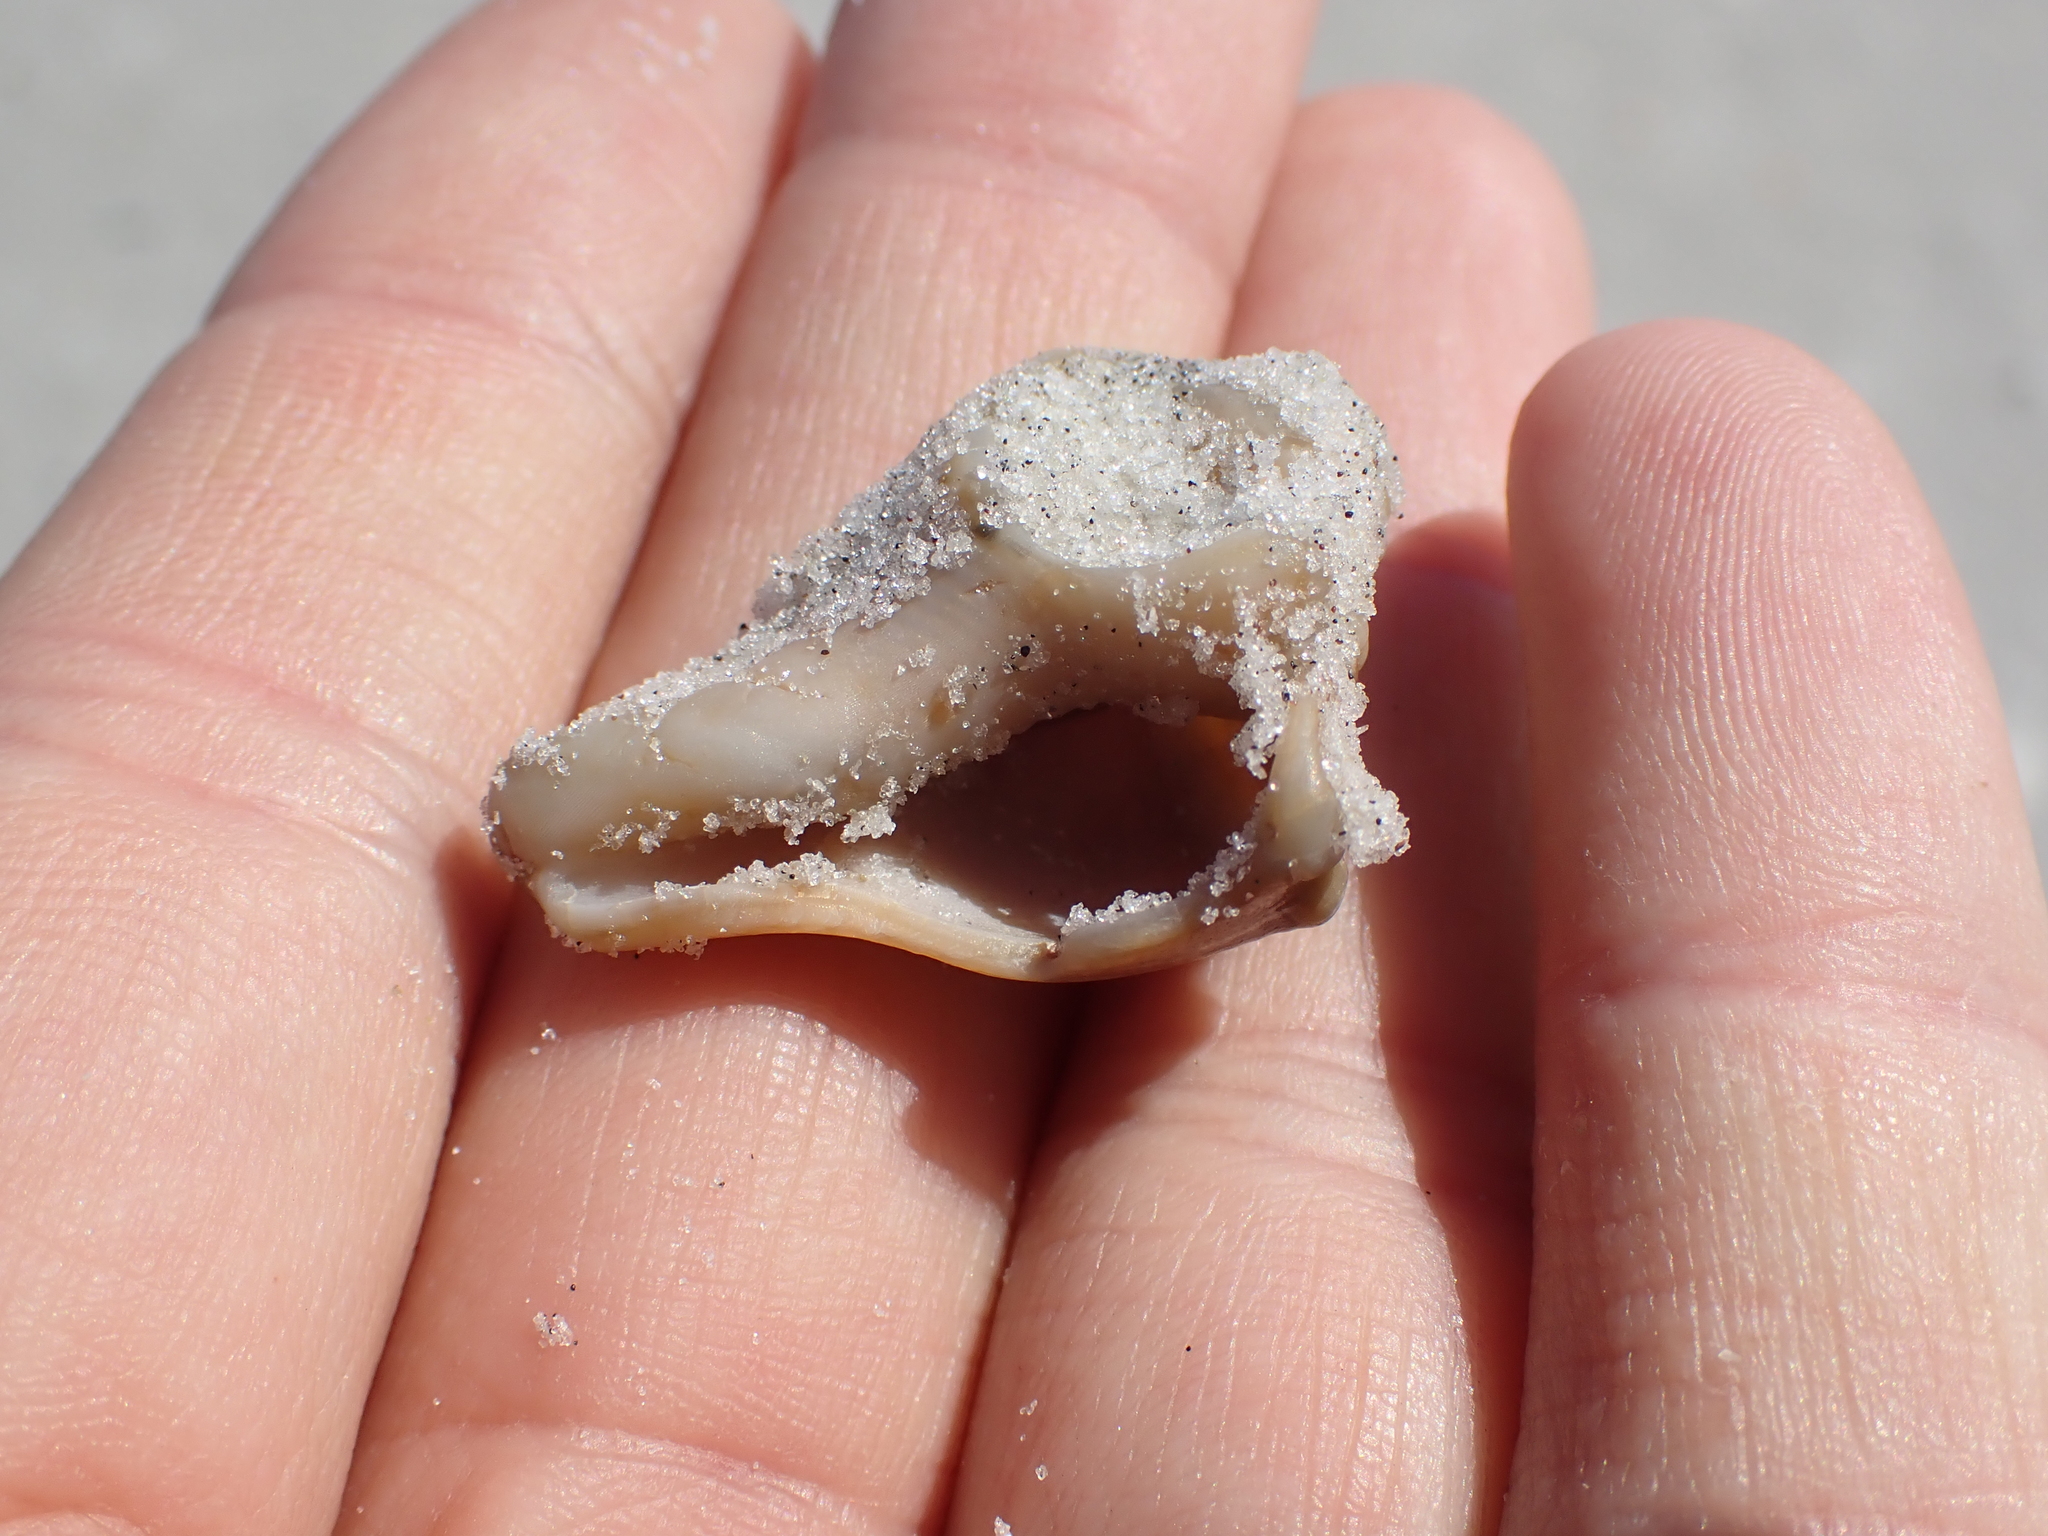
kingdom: Animalia
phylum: Mollusca
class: Gastropoda
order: Neogastropoda
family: Busyconidae
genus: Busycon
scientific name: Busycon carica
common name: Knobbed whelk
